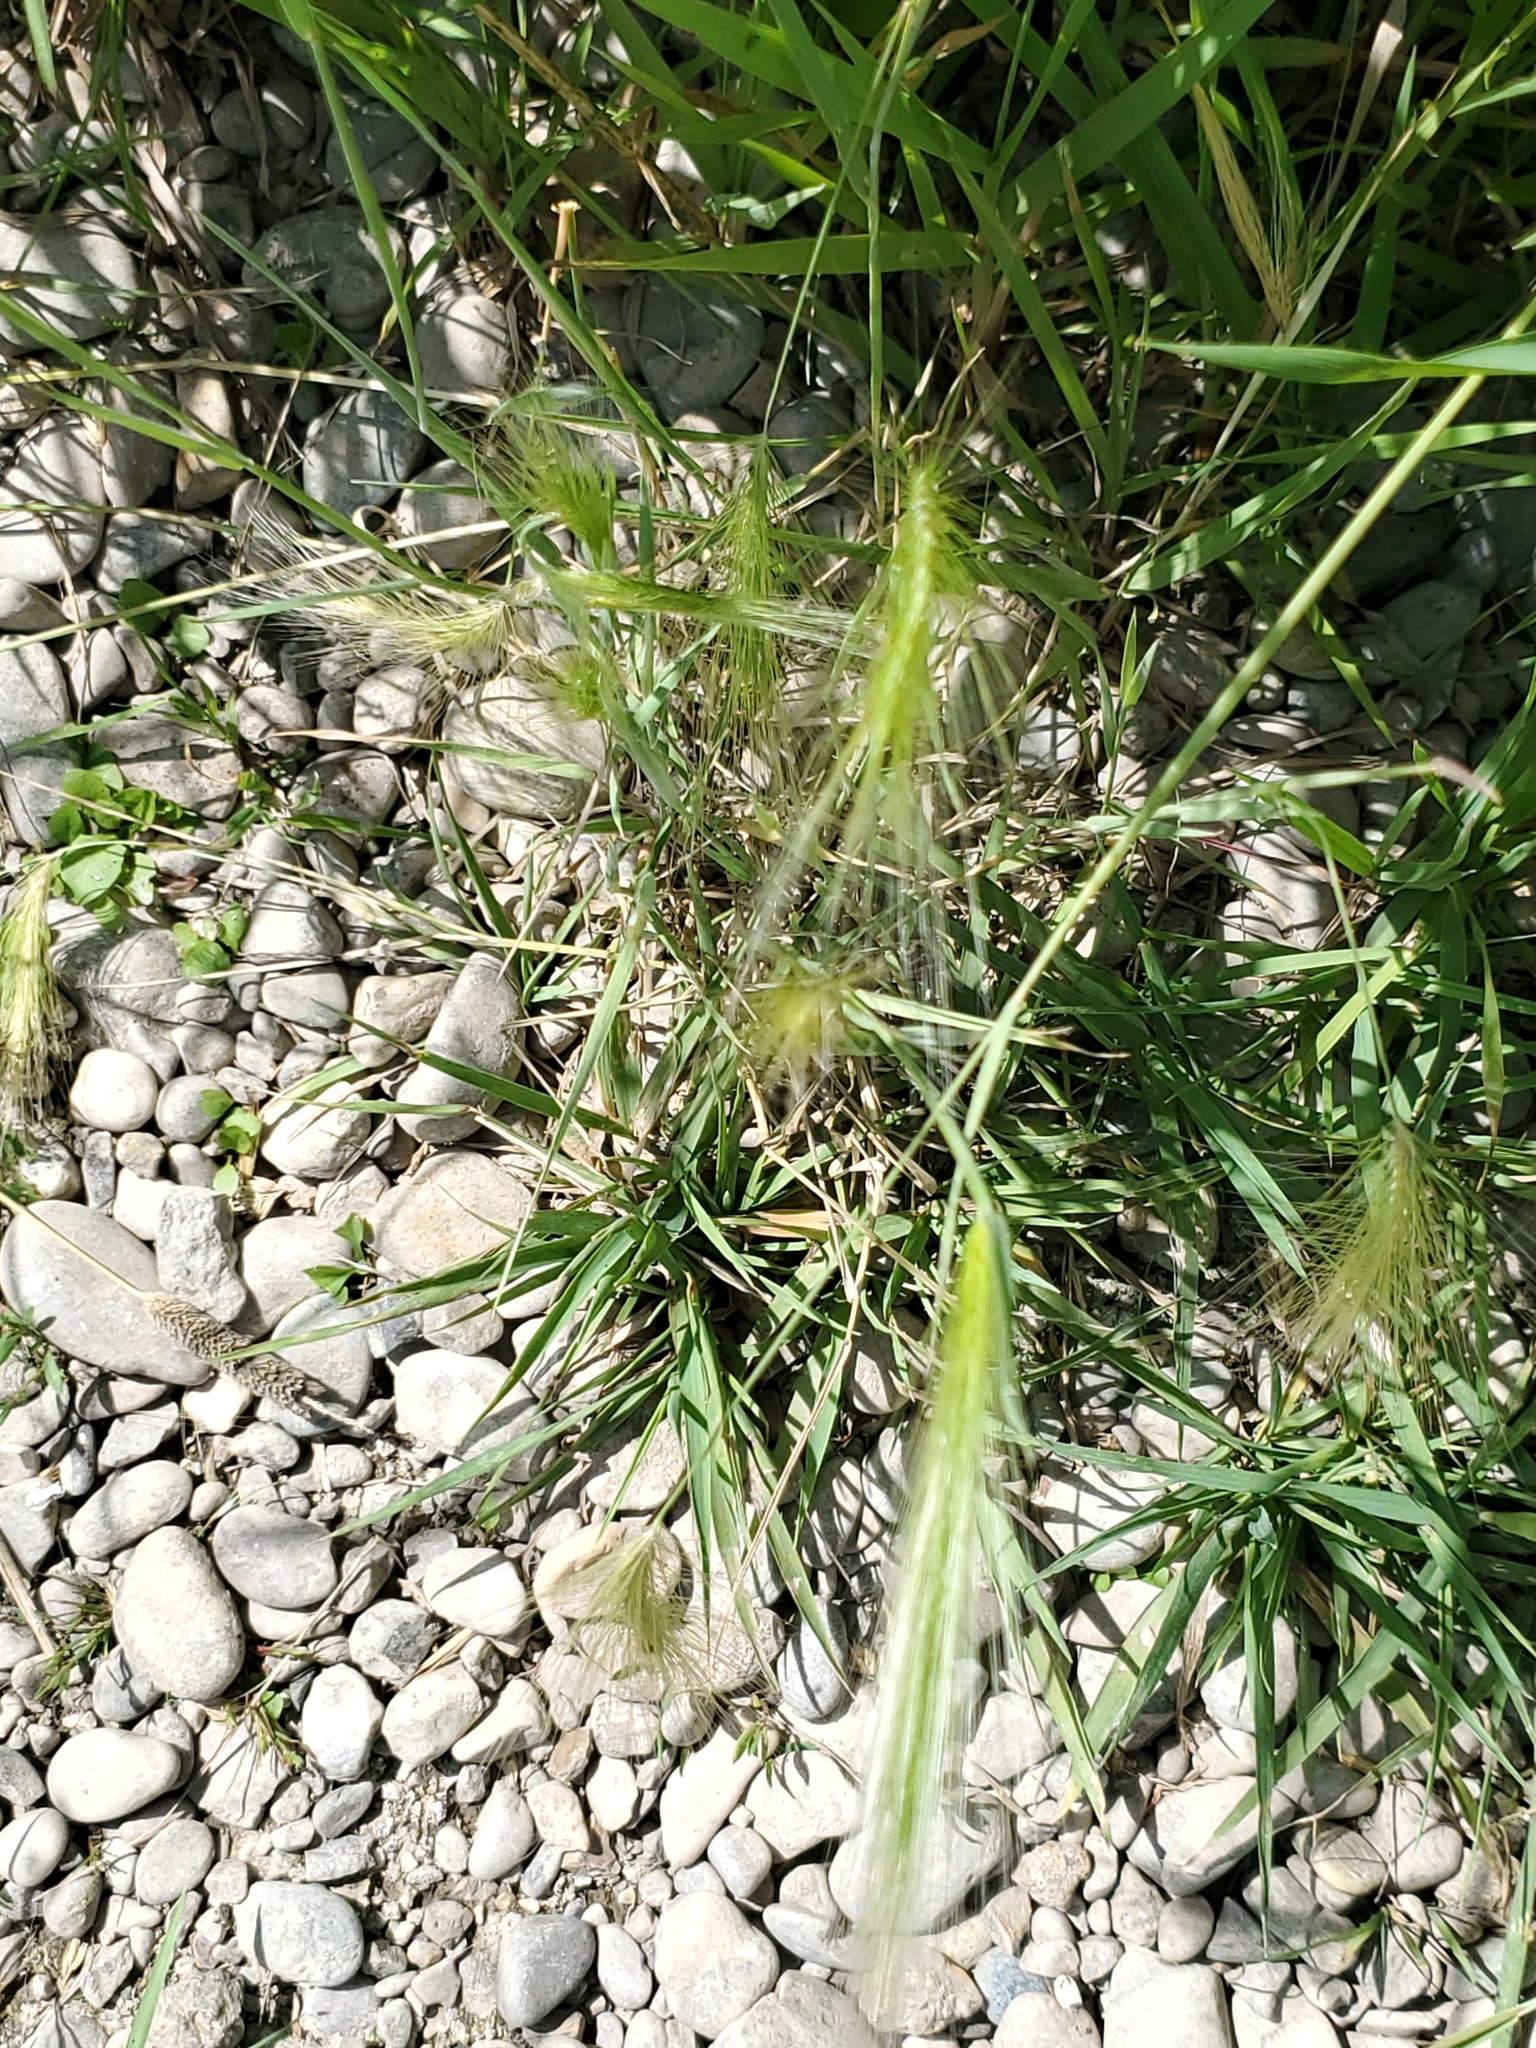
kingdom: Plantae
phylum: Tracheophyta
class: Liliopsida
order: Poales
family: Poaceae
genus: Hordeum
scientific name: Hordeum jubatum
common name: Foxtail barley
